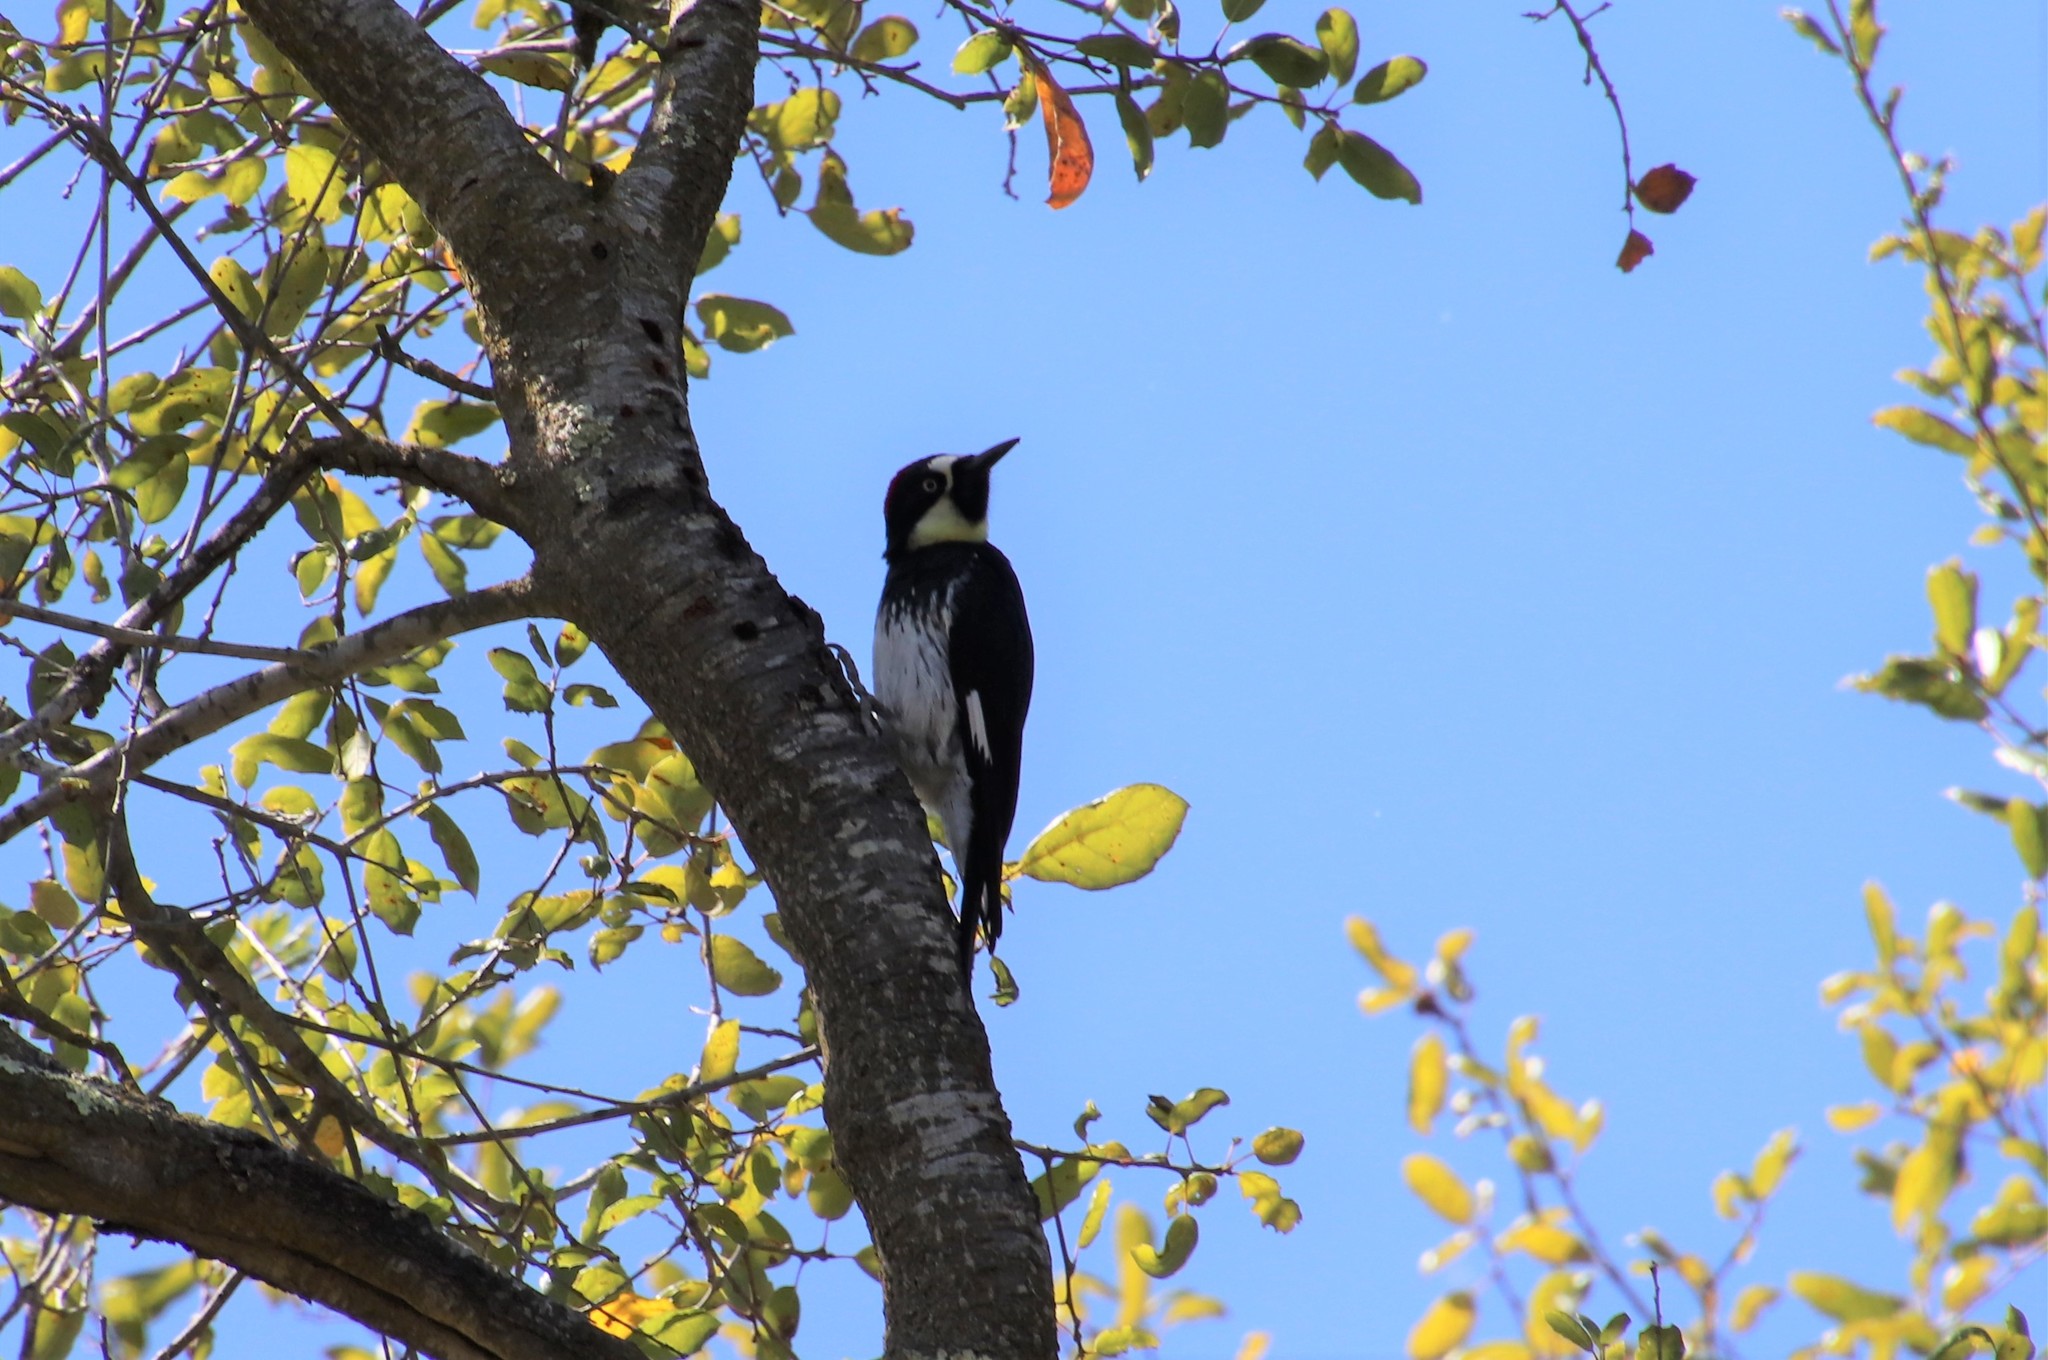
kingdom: Animalia
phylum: Chordata
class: Aves
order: Piciformes
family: Picidae
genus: Melanerpes
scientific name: Melanerpes formicivorus
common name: Acorn woodpecker
